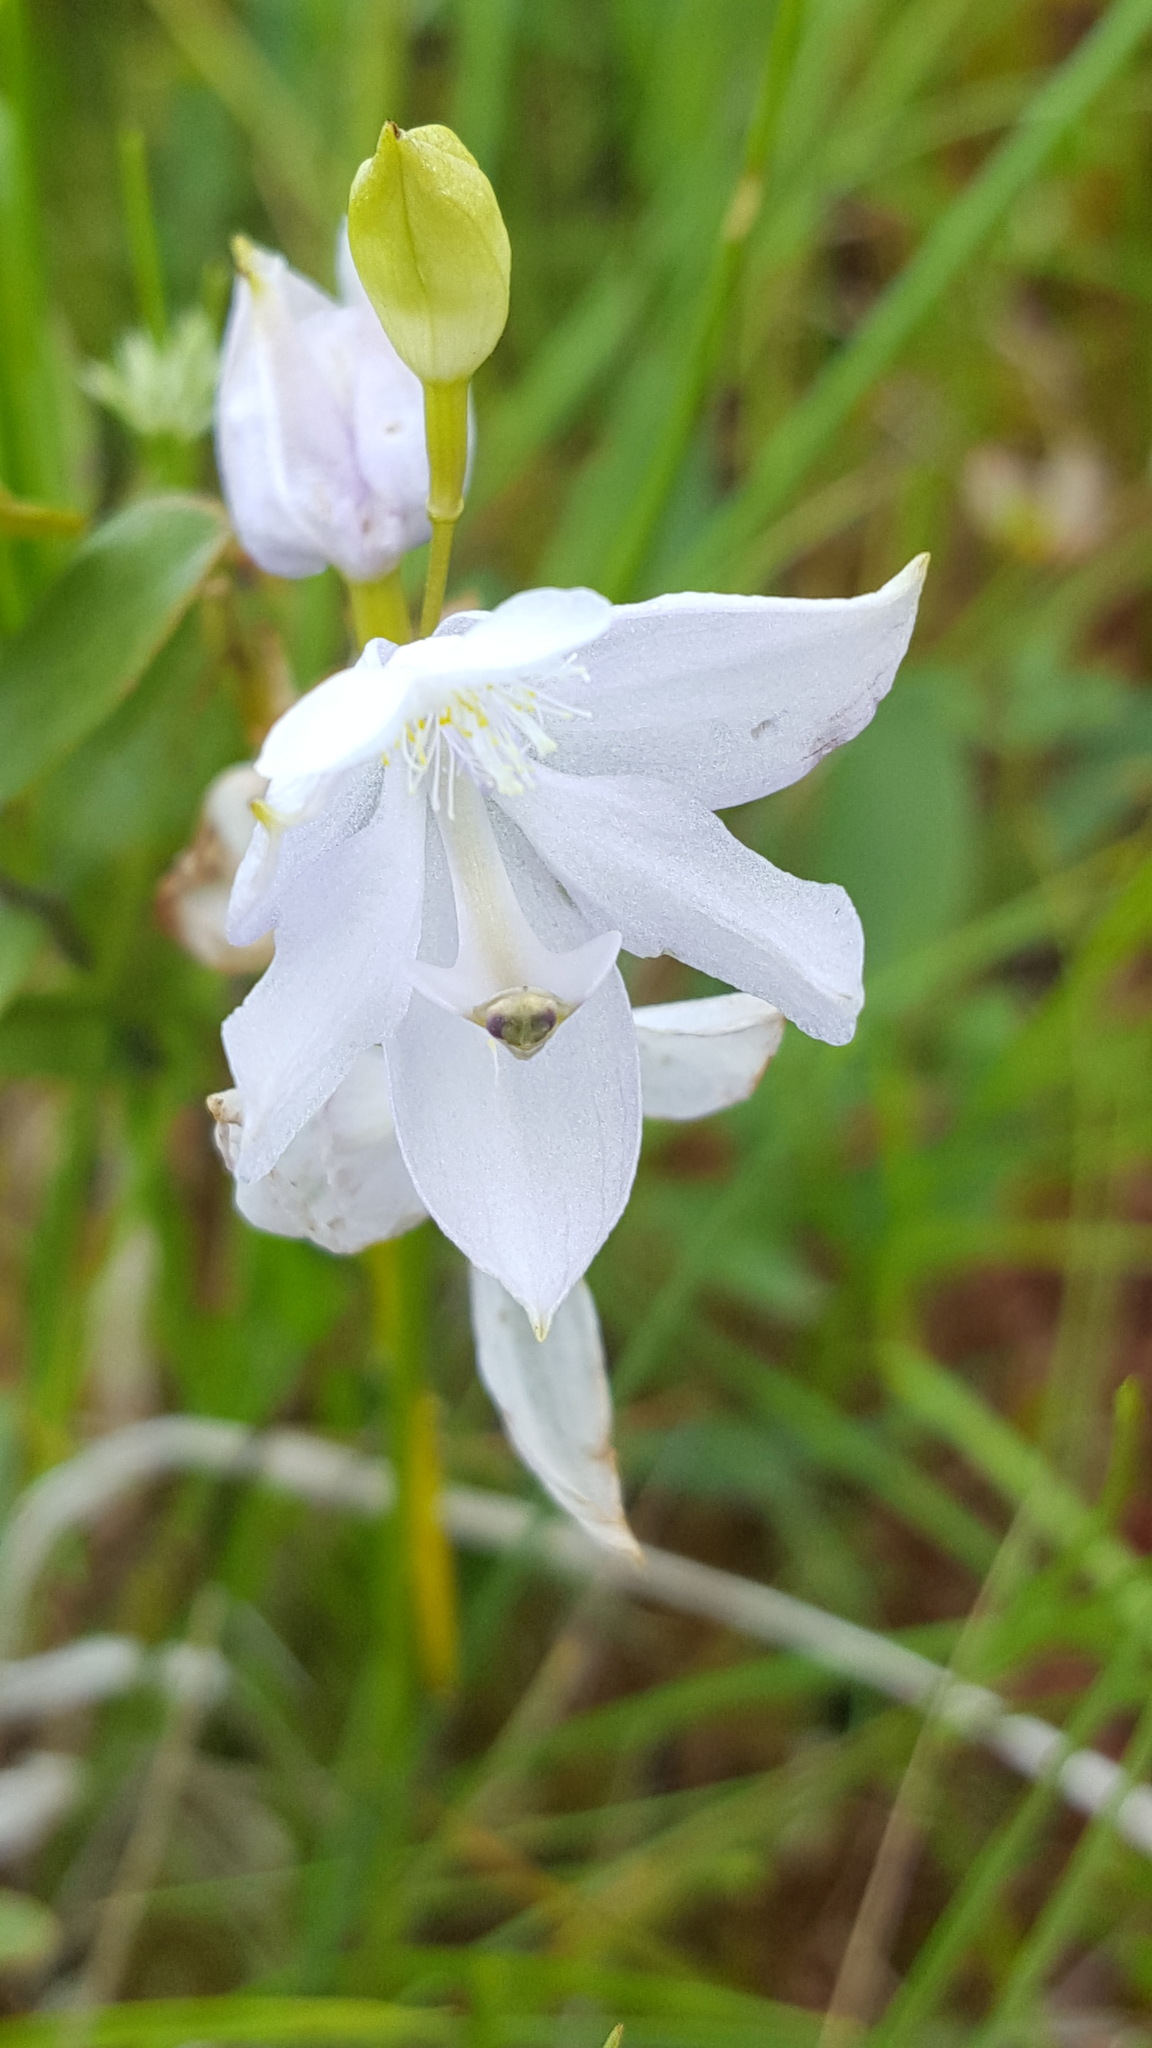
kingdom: Plantae
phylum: Tracheophyta
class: Liliopsida
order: Asparagales
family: Orchidaceae
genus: Calopogon
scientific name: Calopogon tuberosus
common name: Grass-pink
